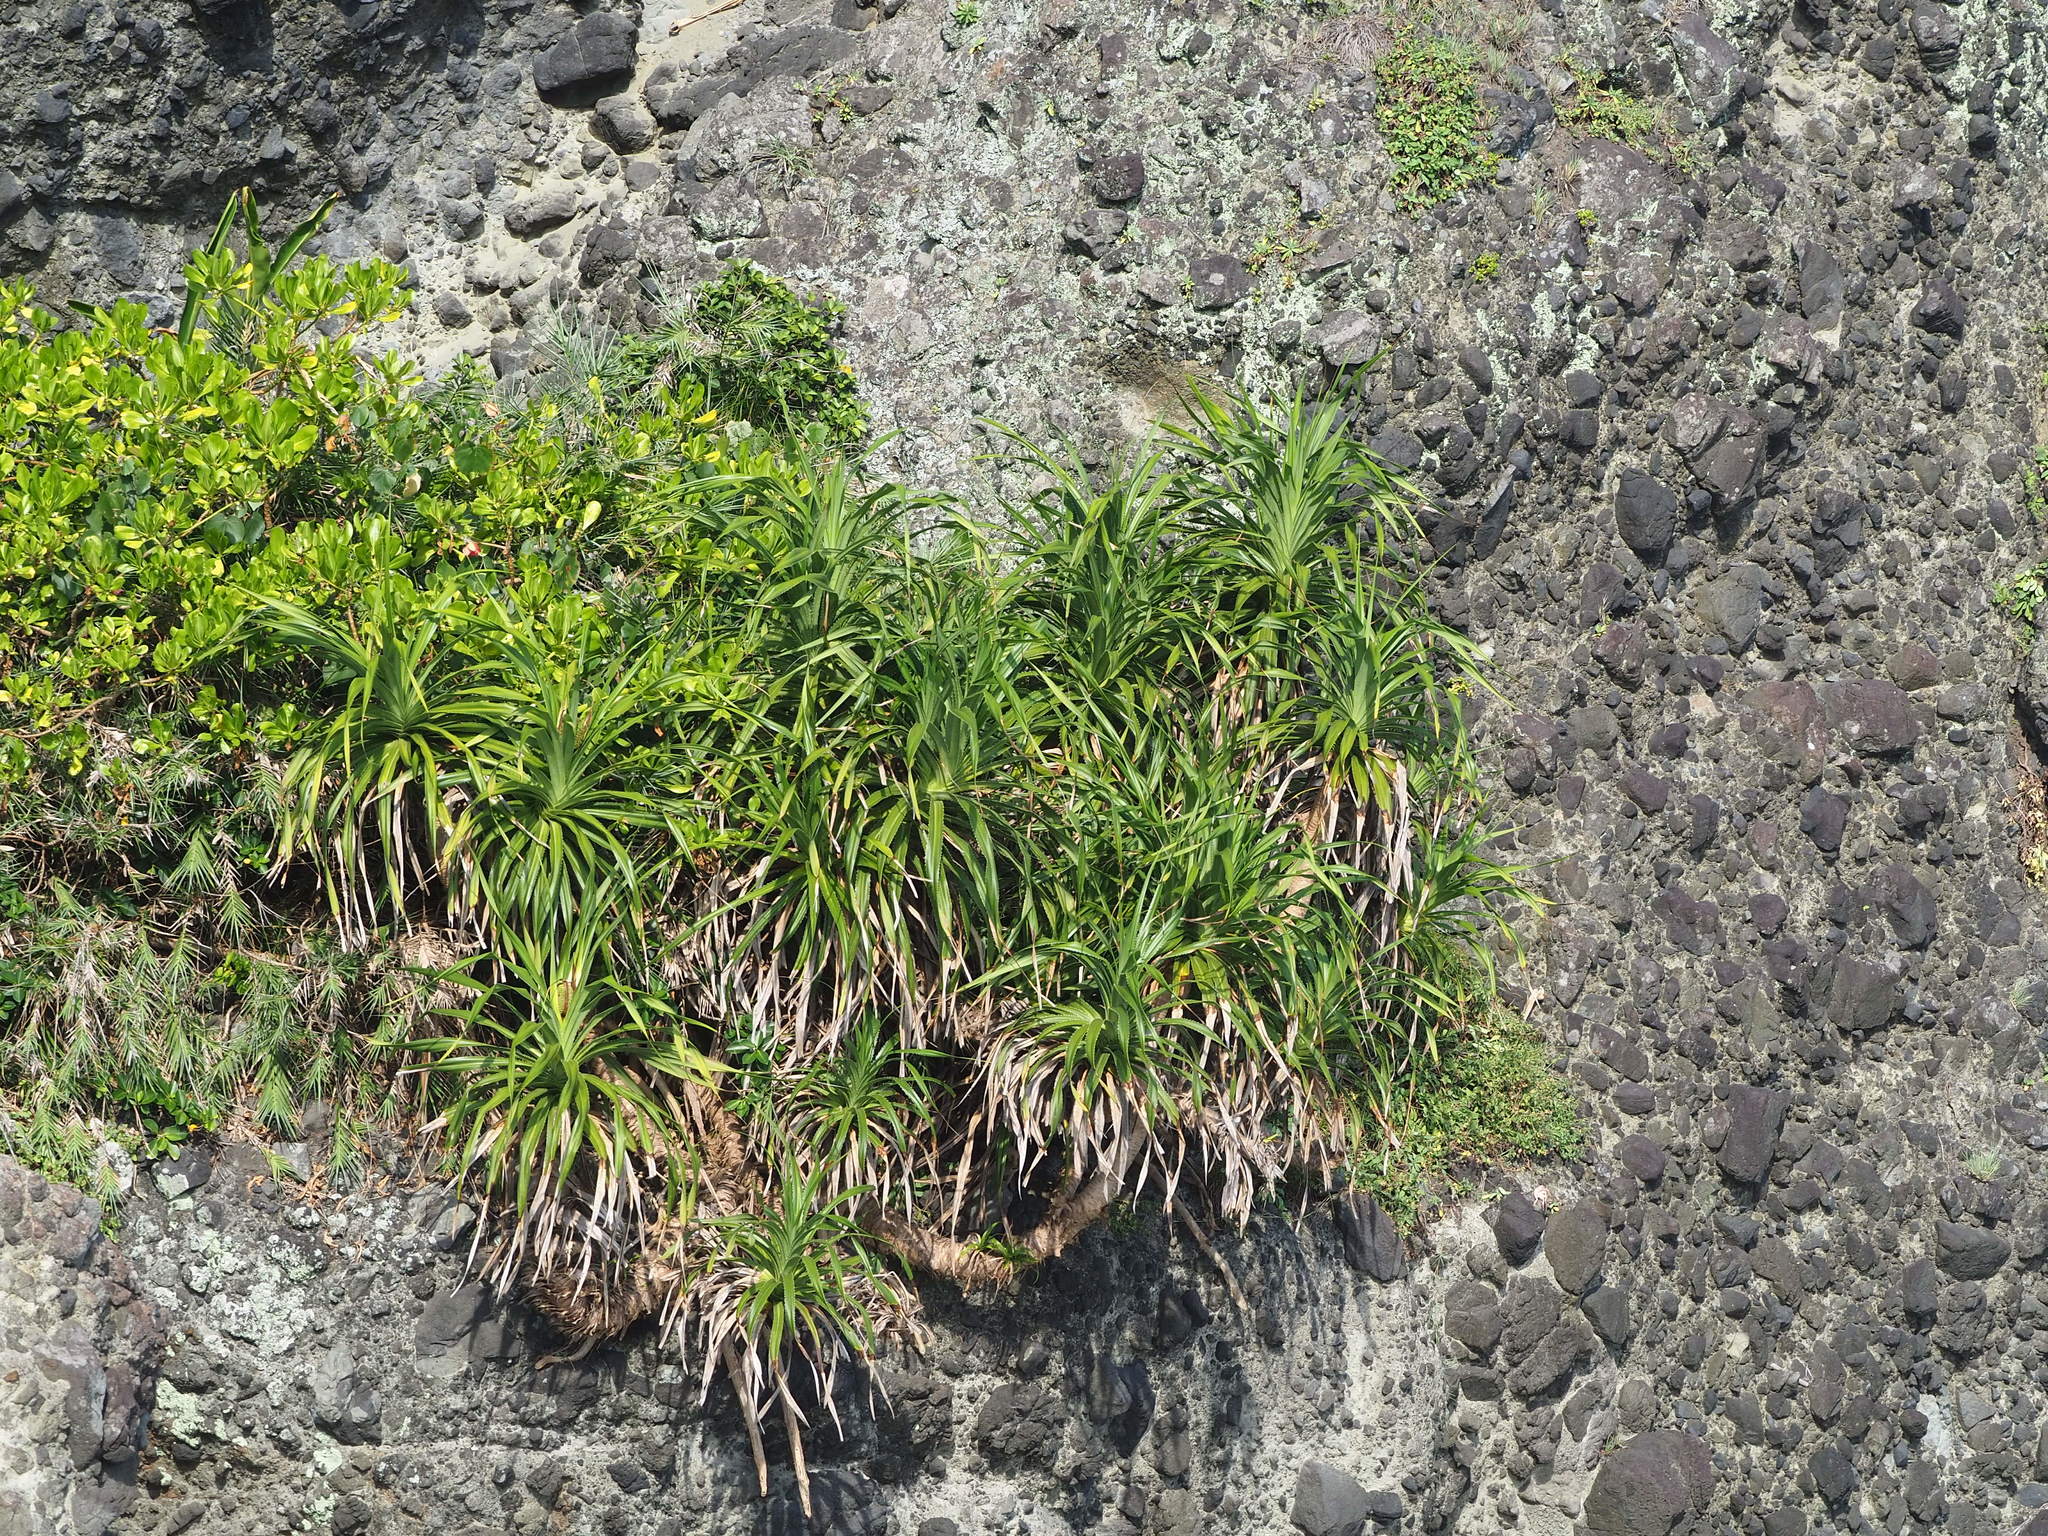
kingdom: Plantae
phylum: Tracheophyta
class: Liliopsida
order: Pandanales
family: Pandanaceae
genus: Pandanus
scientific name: Pandanus odorifer
